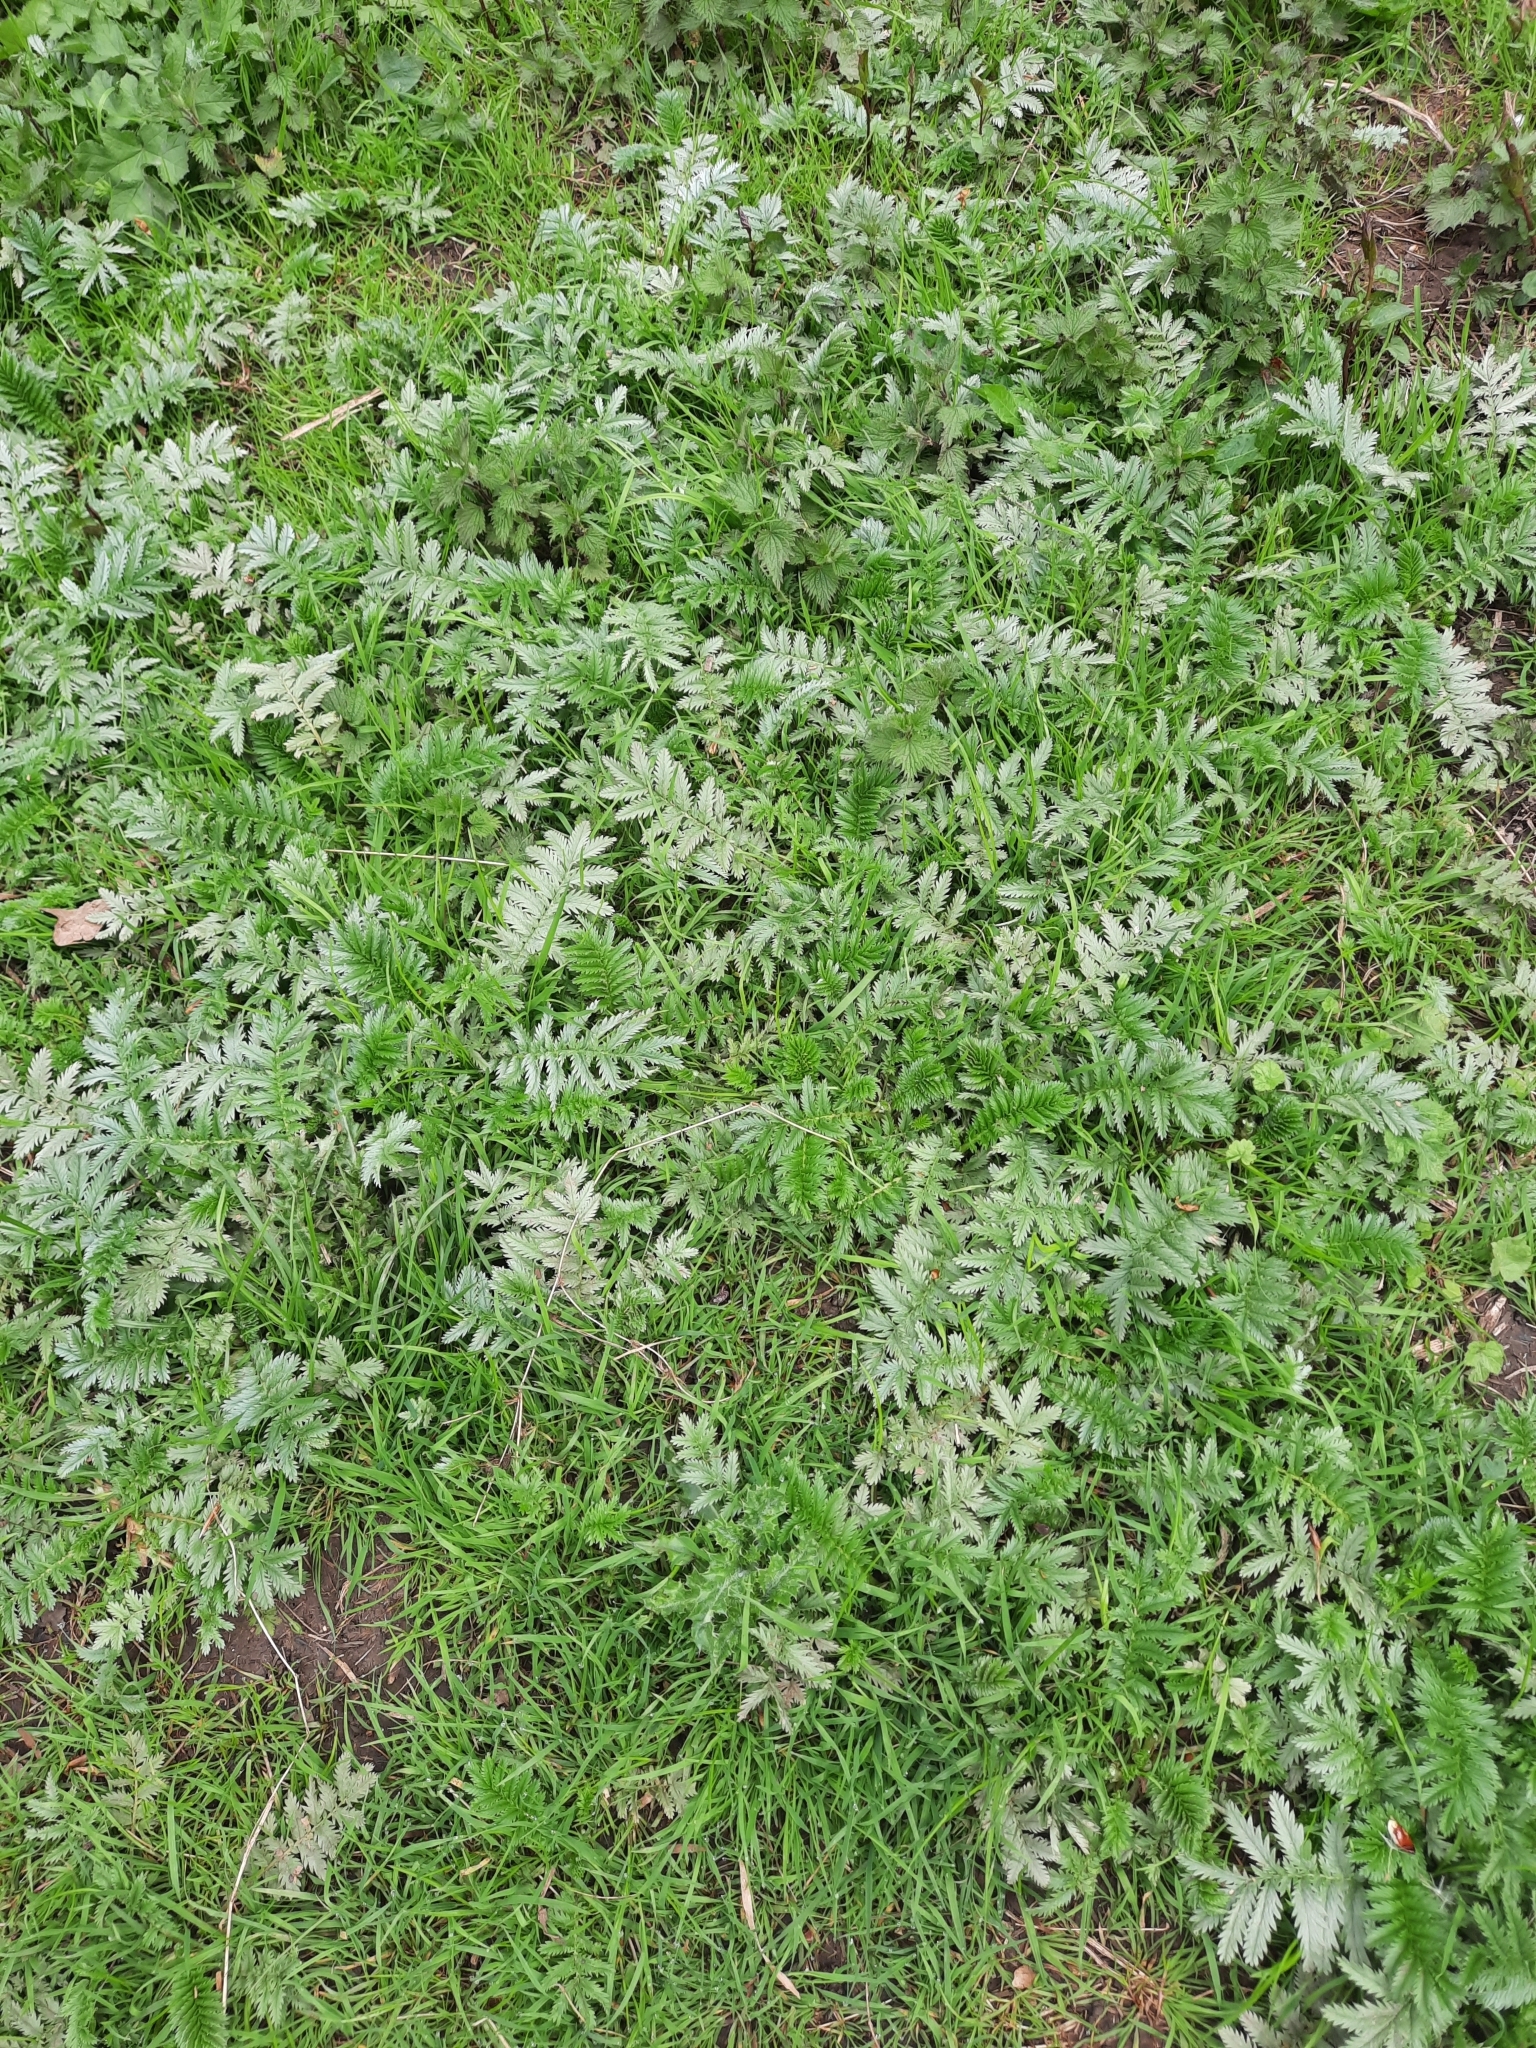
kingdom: Plantae
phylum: Tracheophyta
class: Magnoliopsida
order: Rosales
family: Rosaceae
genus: Argentina
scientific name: Argentina anserina
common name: Common silverweed
